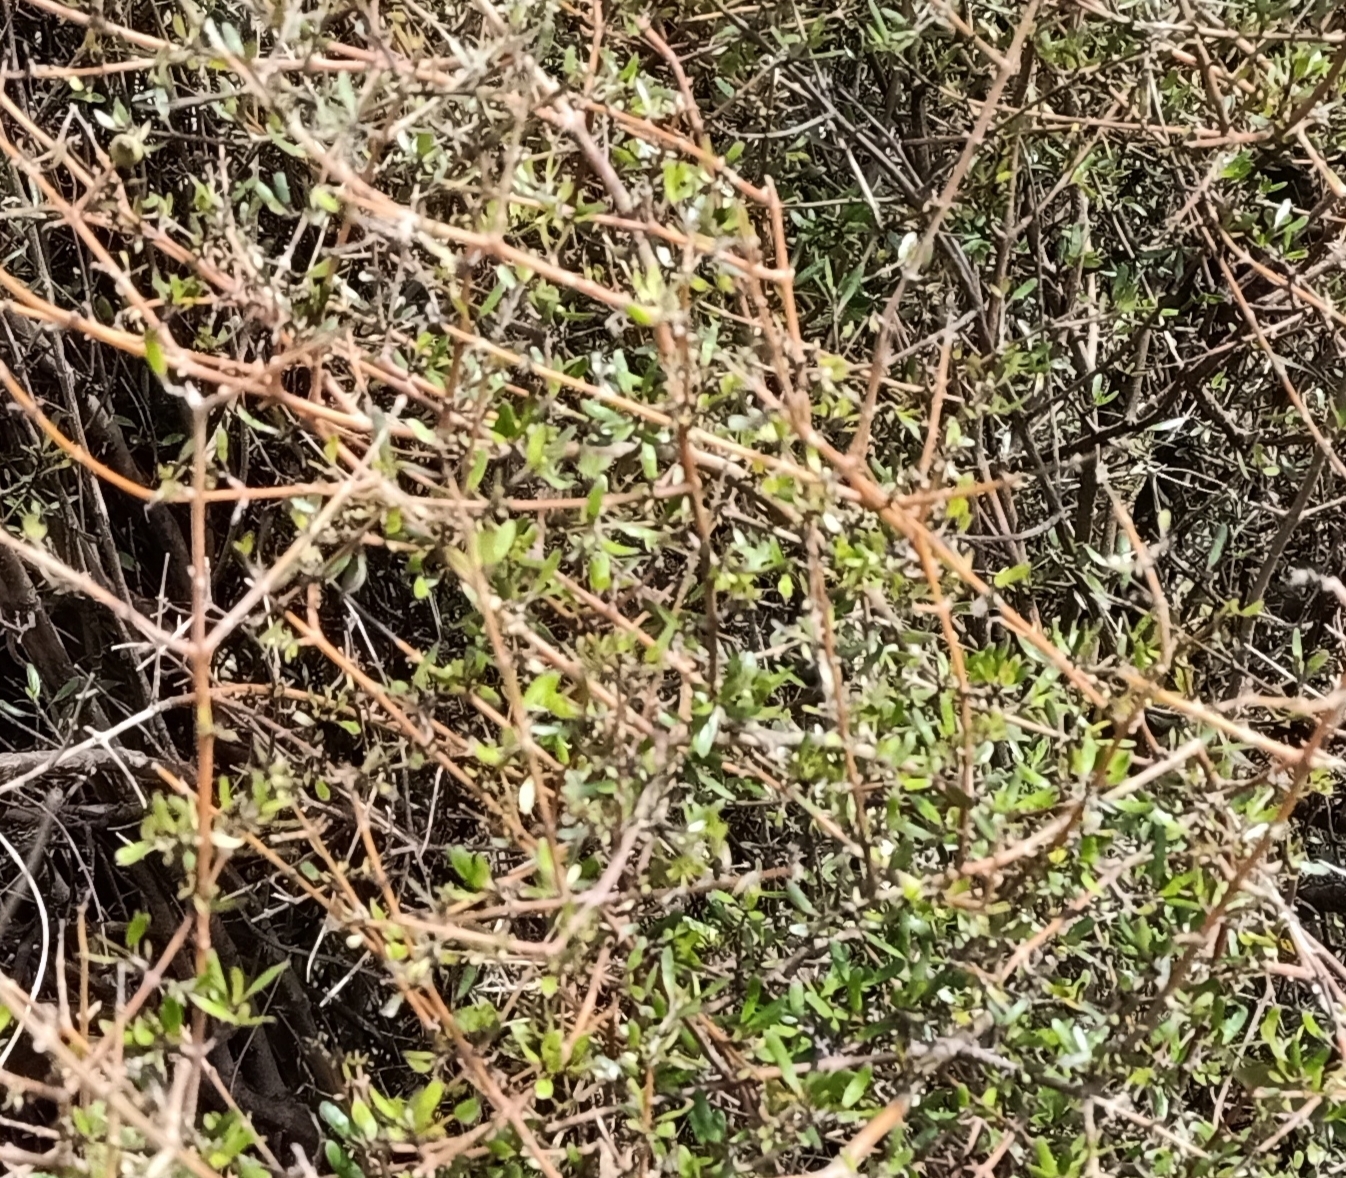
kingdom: Plantae
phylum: Tracheophyta
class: Magnoliopsida
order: Gentianales
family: Rubiaceae
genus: Coprosma
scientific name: Coprosma propinqua
